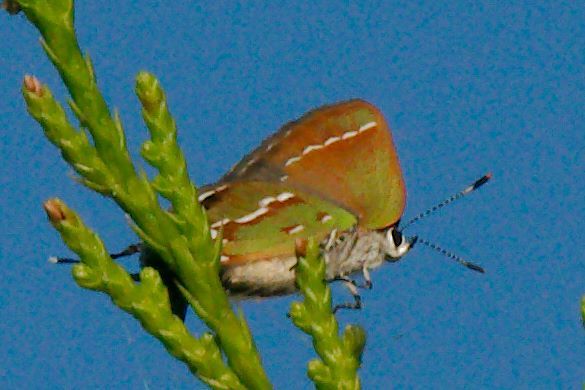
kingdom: Animalia
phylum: Arthropoda
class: Insecta
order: Lepidoptera
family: Lycaenidae
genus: Mitoura
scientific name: Mitoura gryneus
